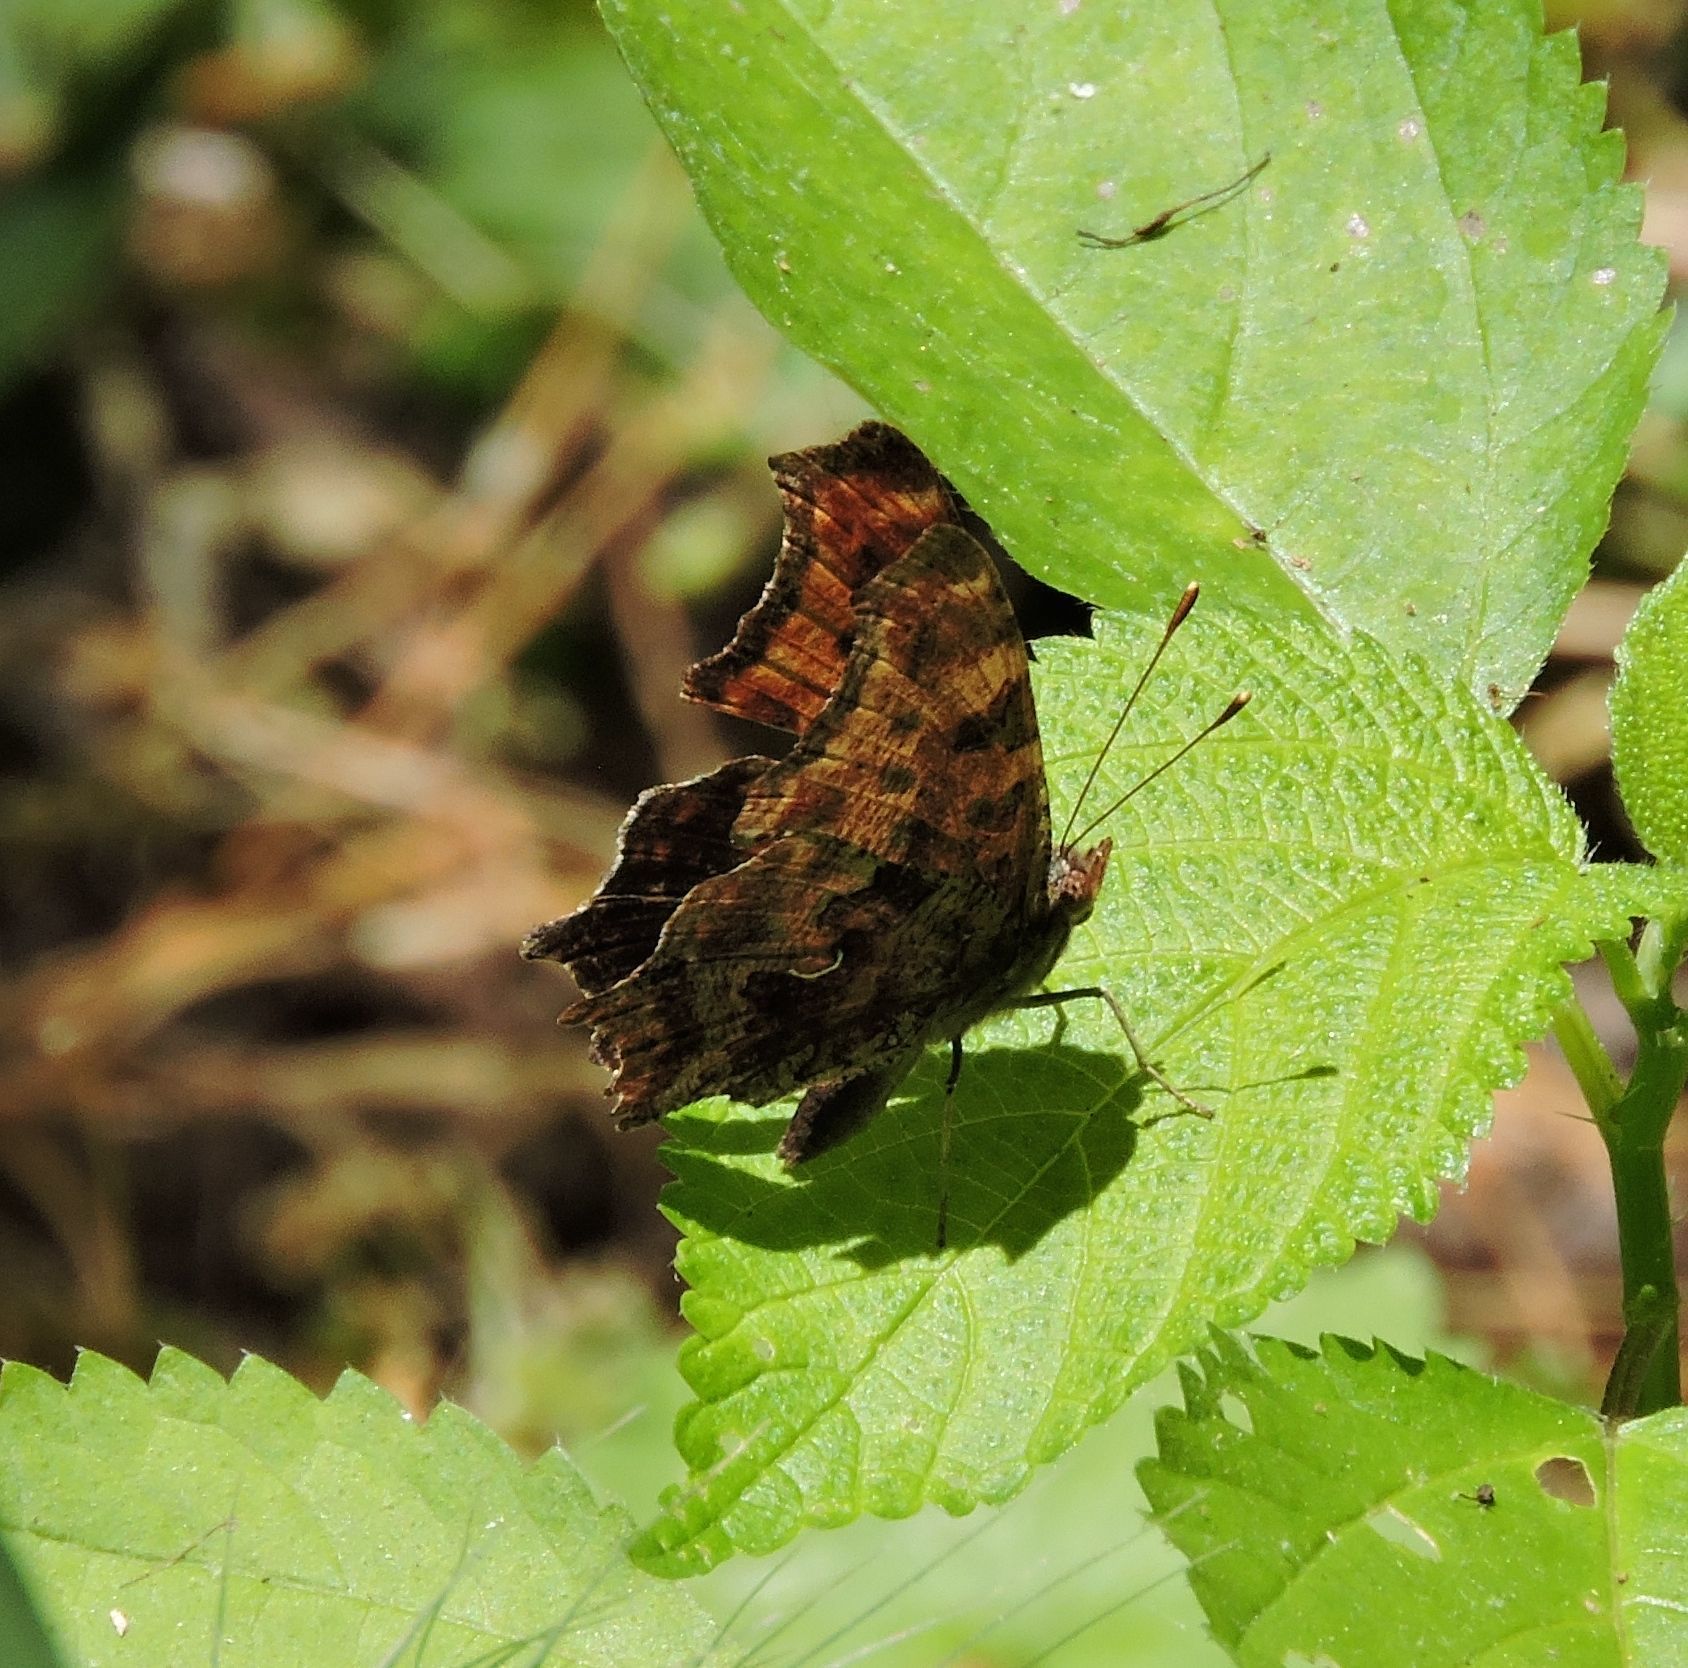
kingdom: Animalia
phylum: Arthropoda
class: Insecta
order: Lepidoptera
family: Nymphalidae
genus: Polygonia
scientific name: Polygonia comma
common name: Eastern comma
